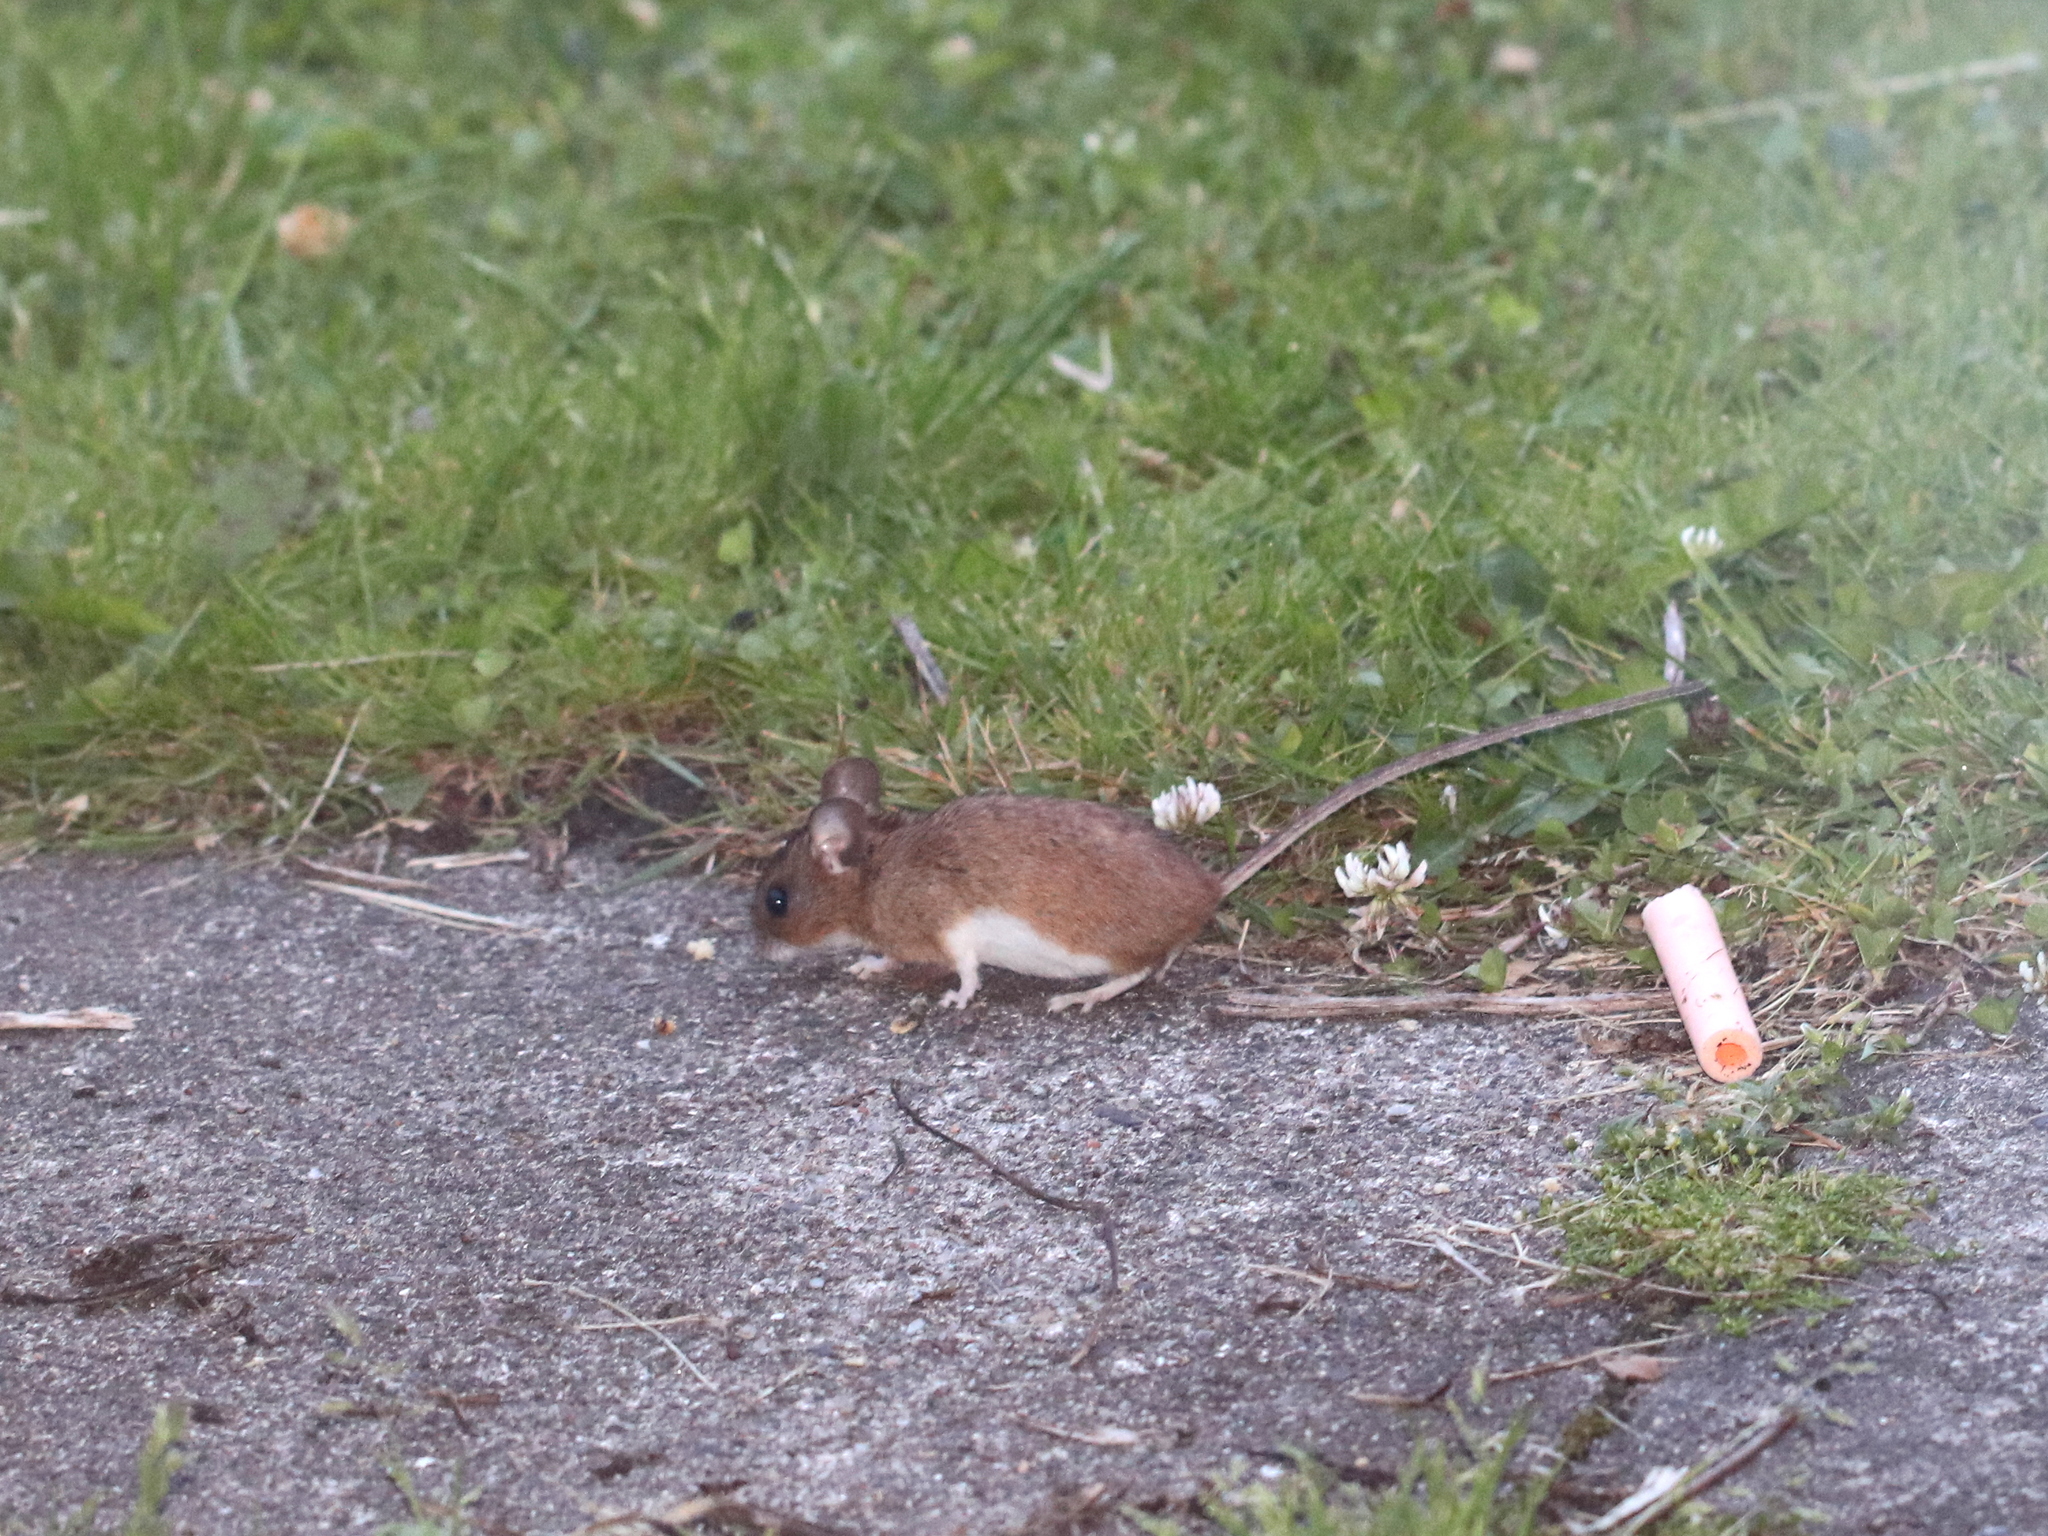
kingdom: Animalia
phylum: Chordata
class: Mammalia
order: Rodentia
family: Muridae
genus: Apodemus
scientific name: Apodemus flavicollis
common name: Yellow-necked field mouse
